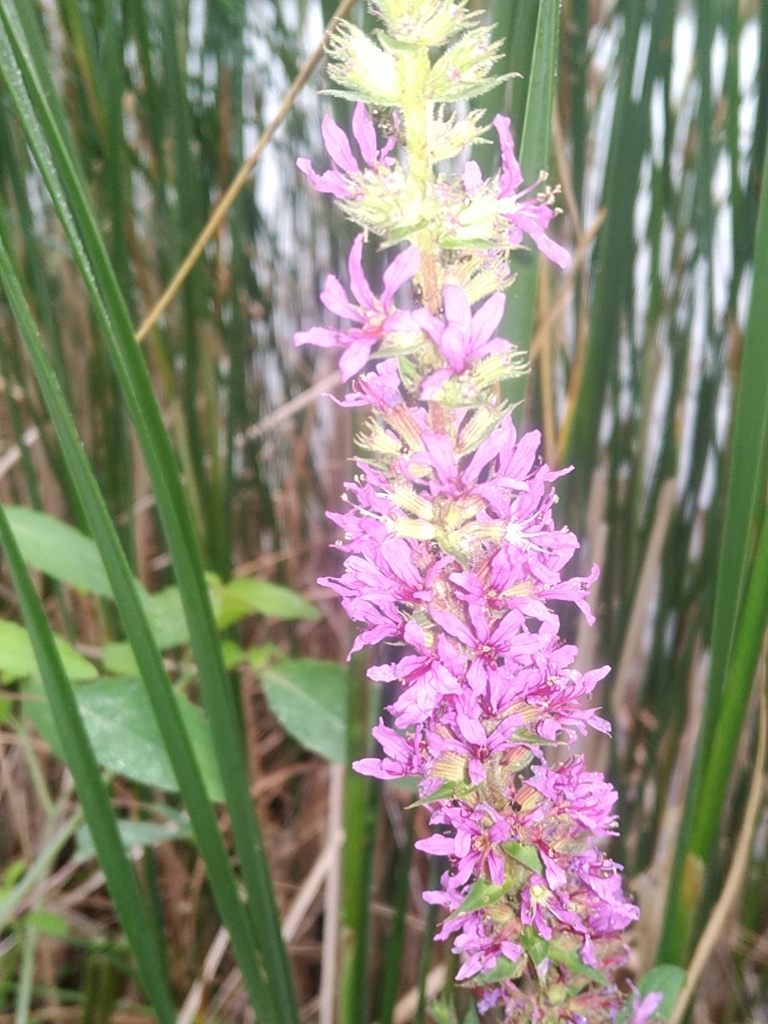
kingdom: Plantae
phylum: Tracheophyta
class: Magnoliopsida
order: Myrtales
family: Lythraceae
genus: Lythrum
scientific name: Lythrum salicaria
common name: Purple loosestrife
